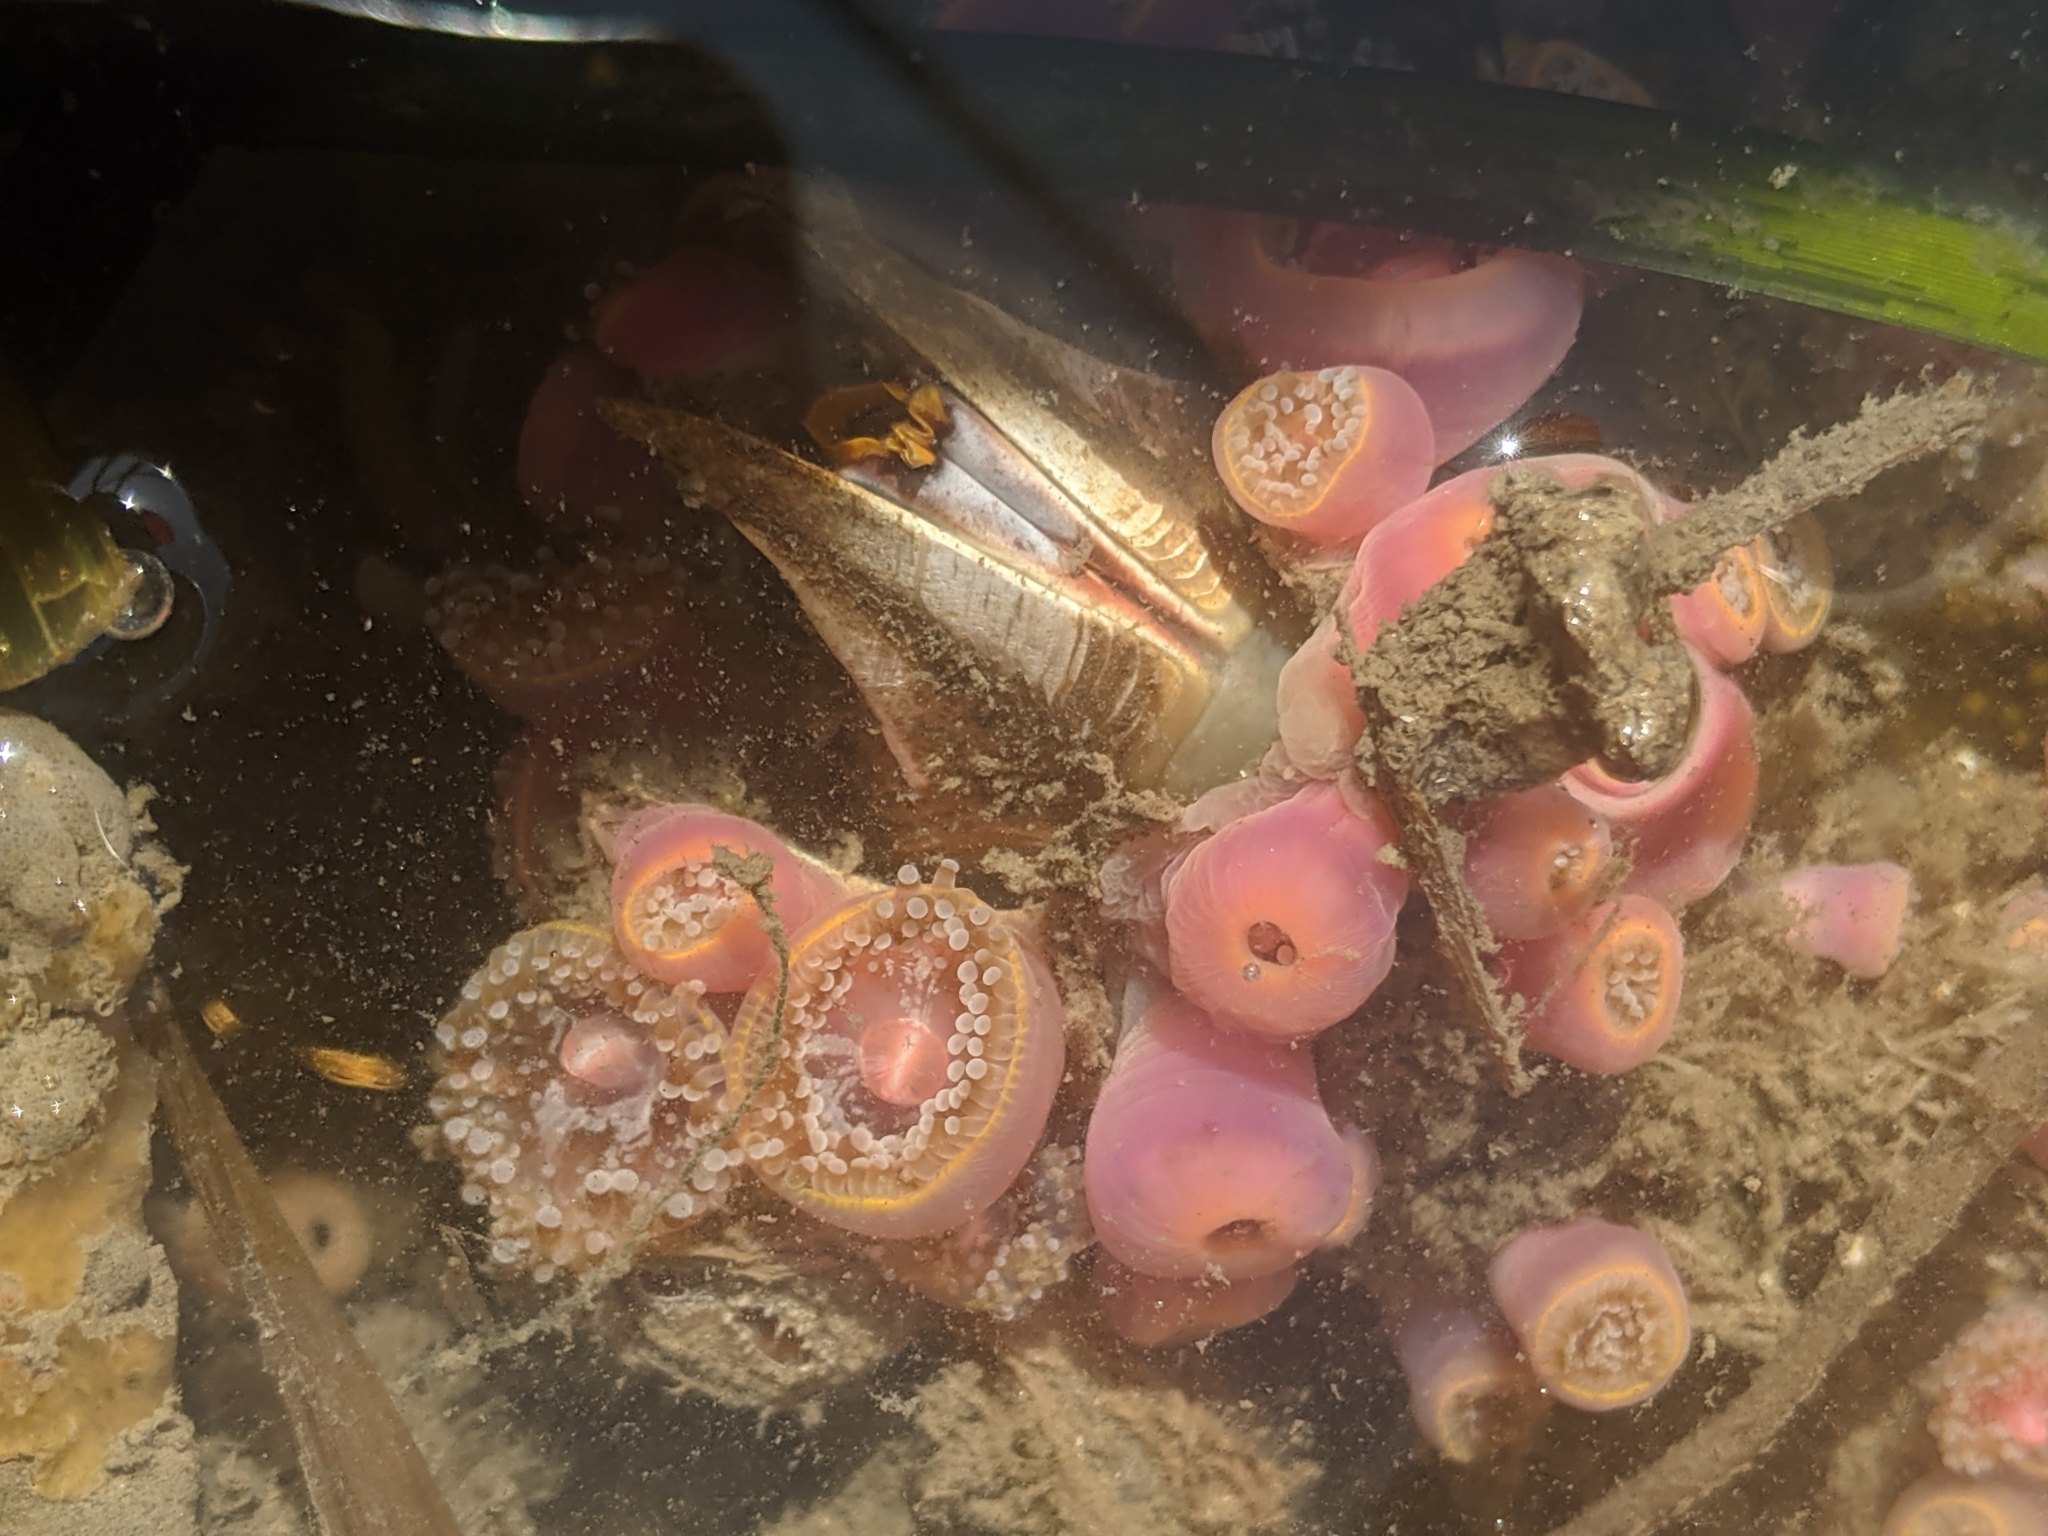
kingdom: Animalia
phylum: Arthropoda
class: Maxillopoda
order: Sessilia
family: Balanidae
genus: Balanus
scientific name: Balanus nubilus
